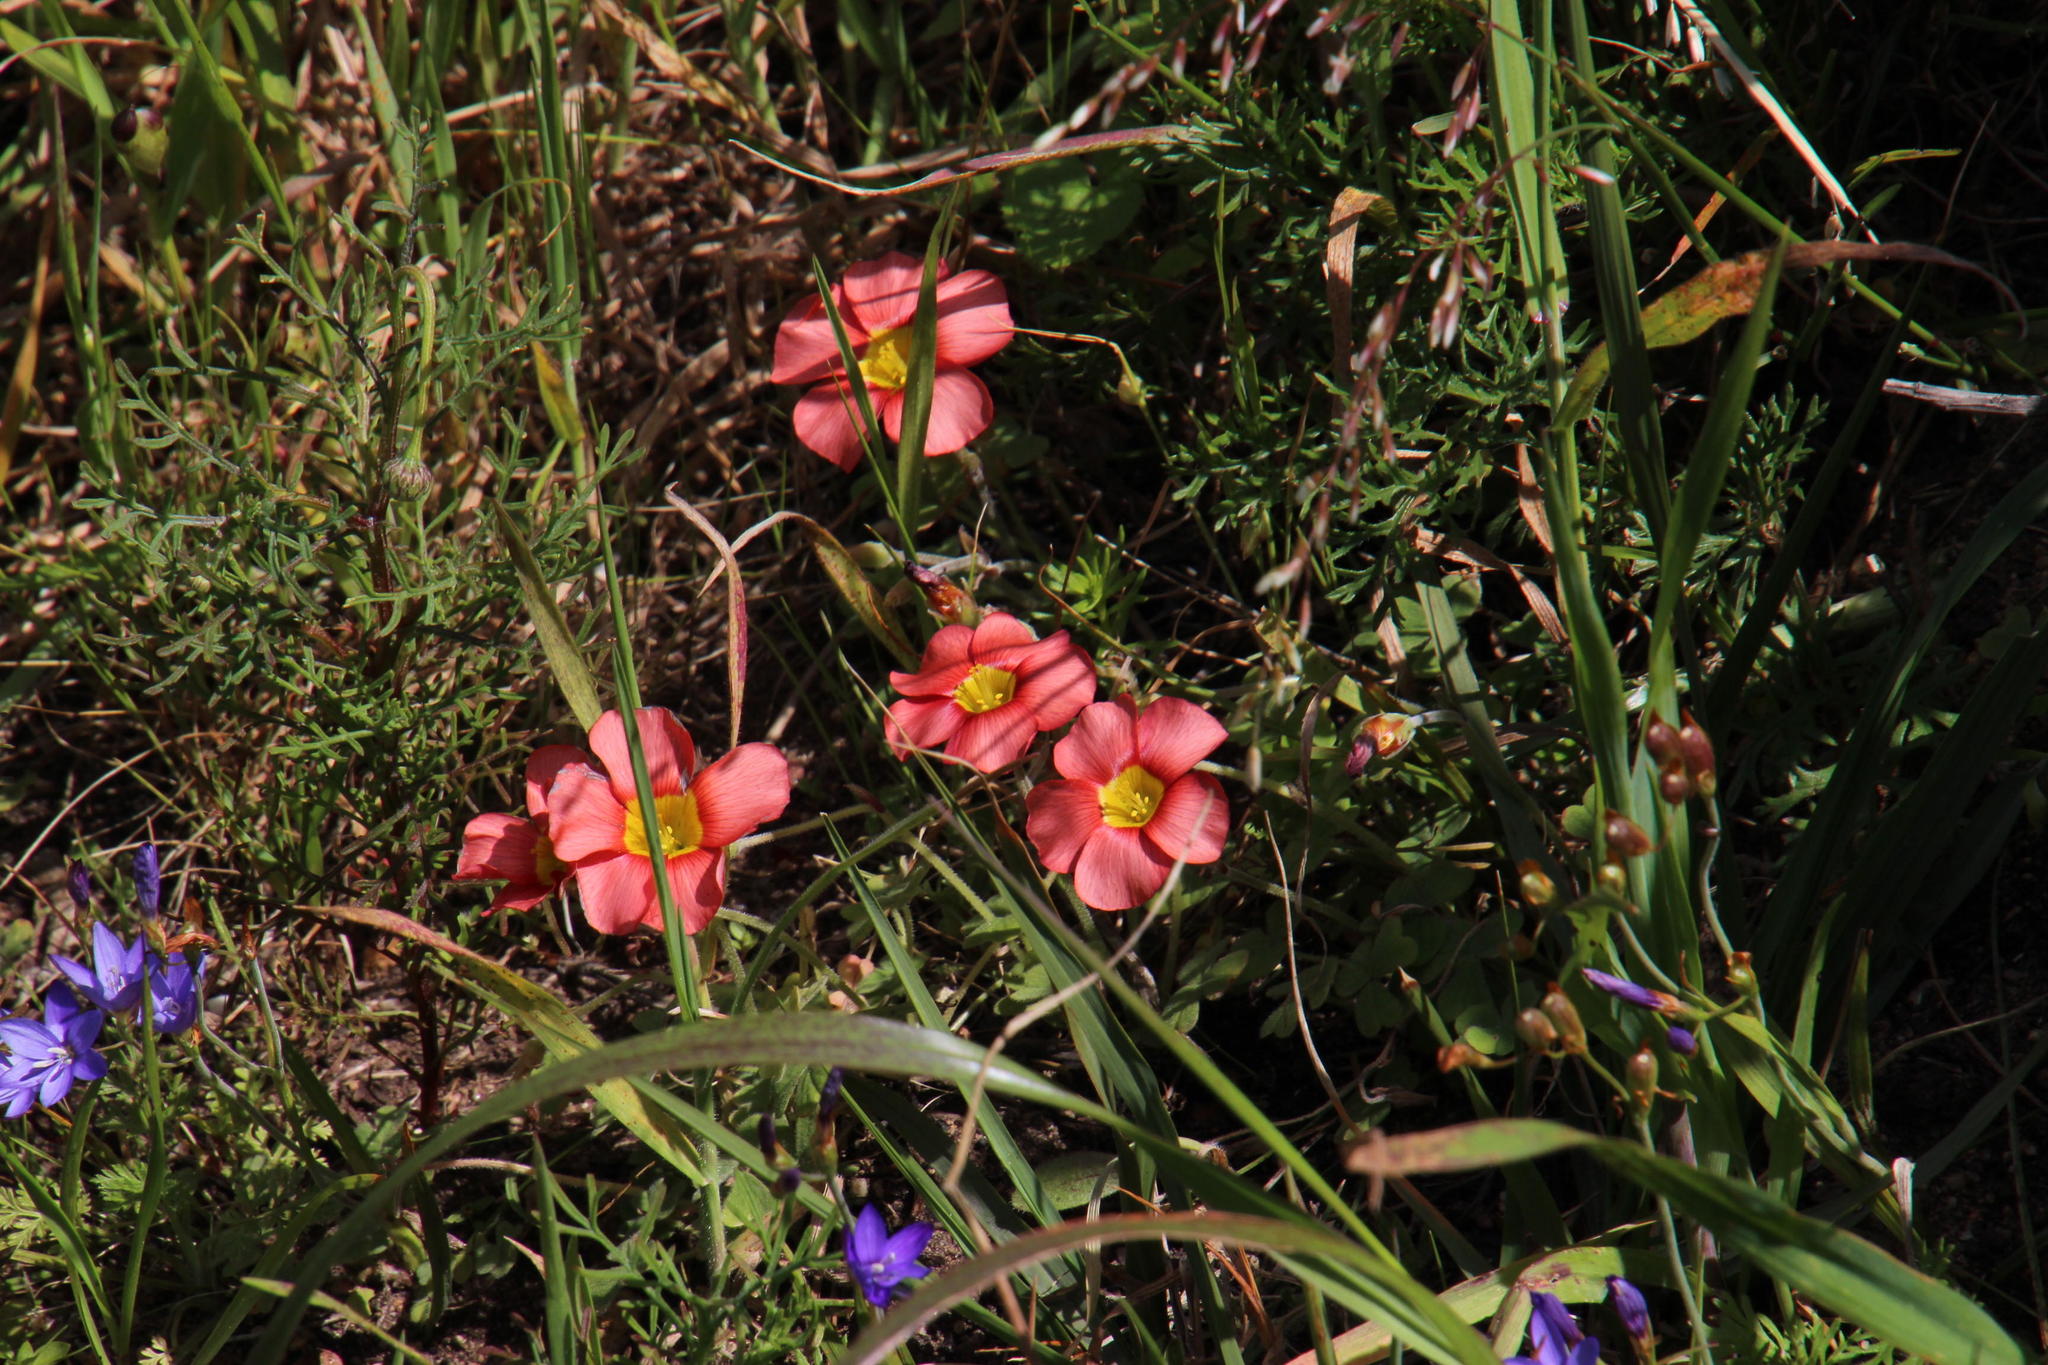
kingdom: Plantae
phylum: Tracheophyta
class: Magnoliopsida
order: Oxalidales
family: Oxalidaceae
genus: Oxalis
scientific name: Oxalis obtusa
